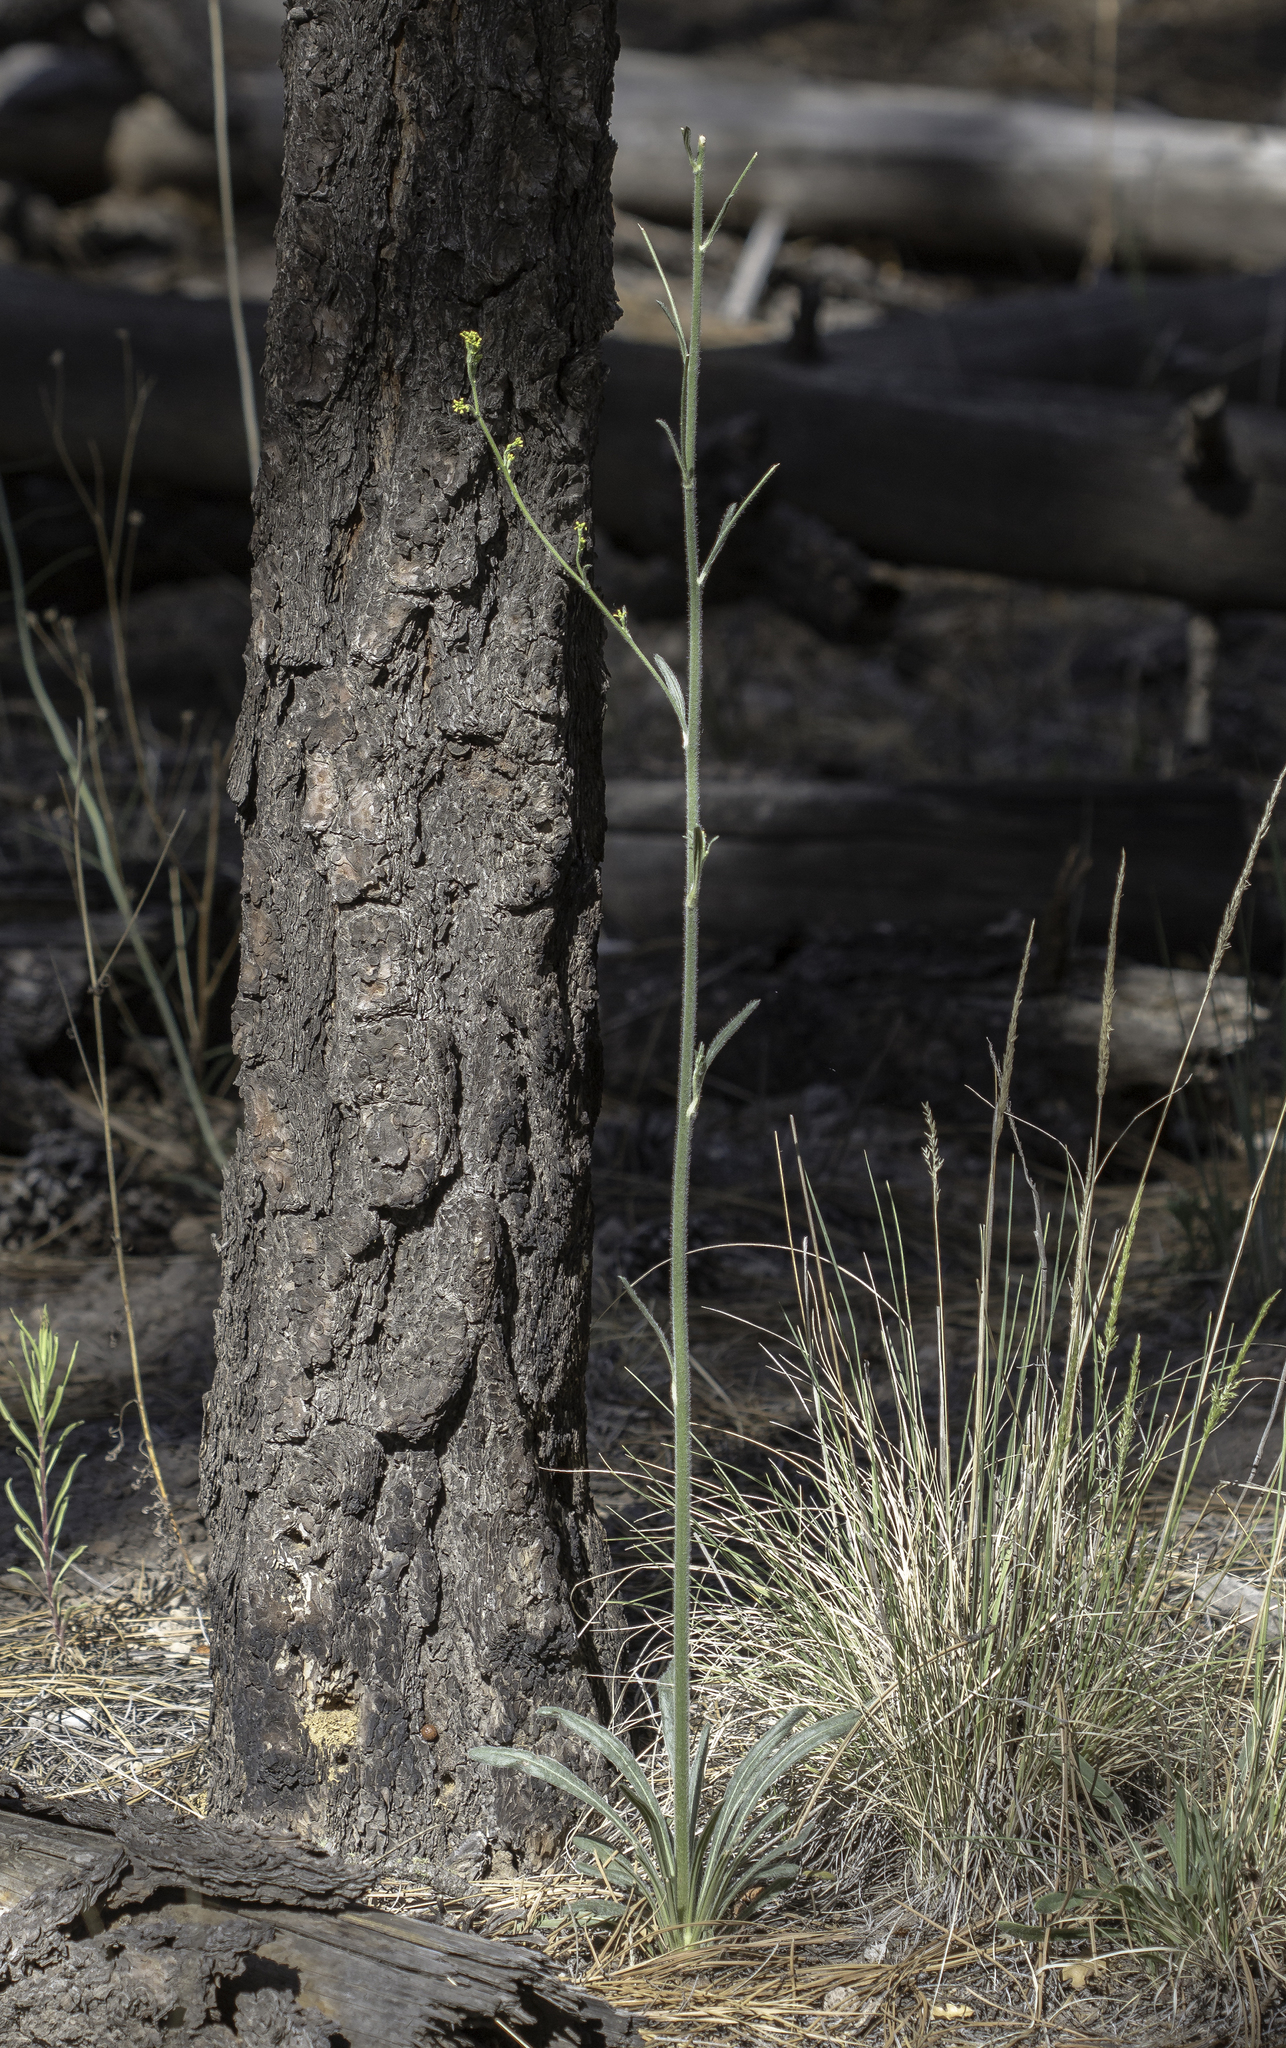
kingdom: Plantae
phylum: Tracheophyta
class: Magnoliopsida
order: Caryophyllales
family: Polygonaceae
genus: Eriogonum
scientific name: Eriogonum alatum
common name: Winged eriogonum
